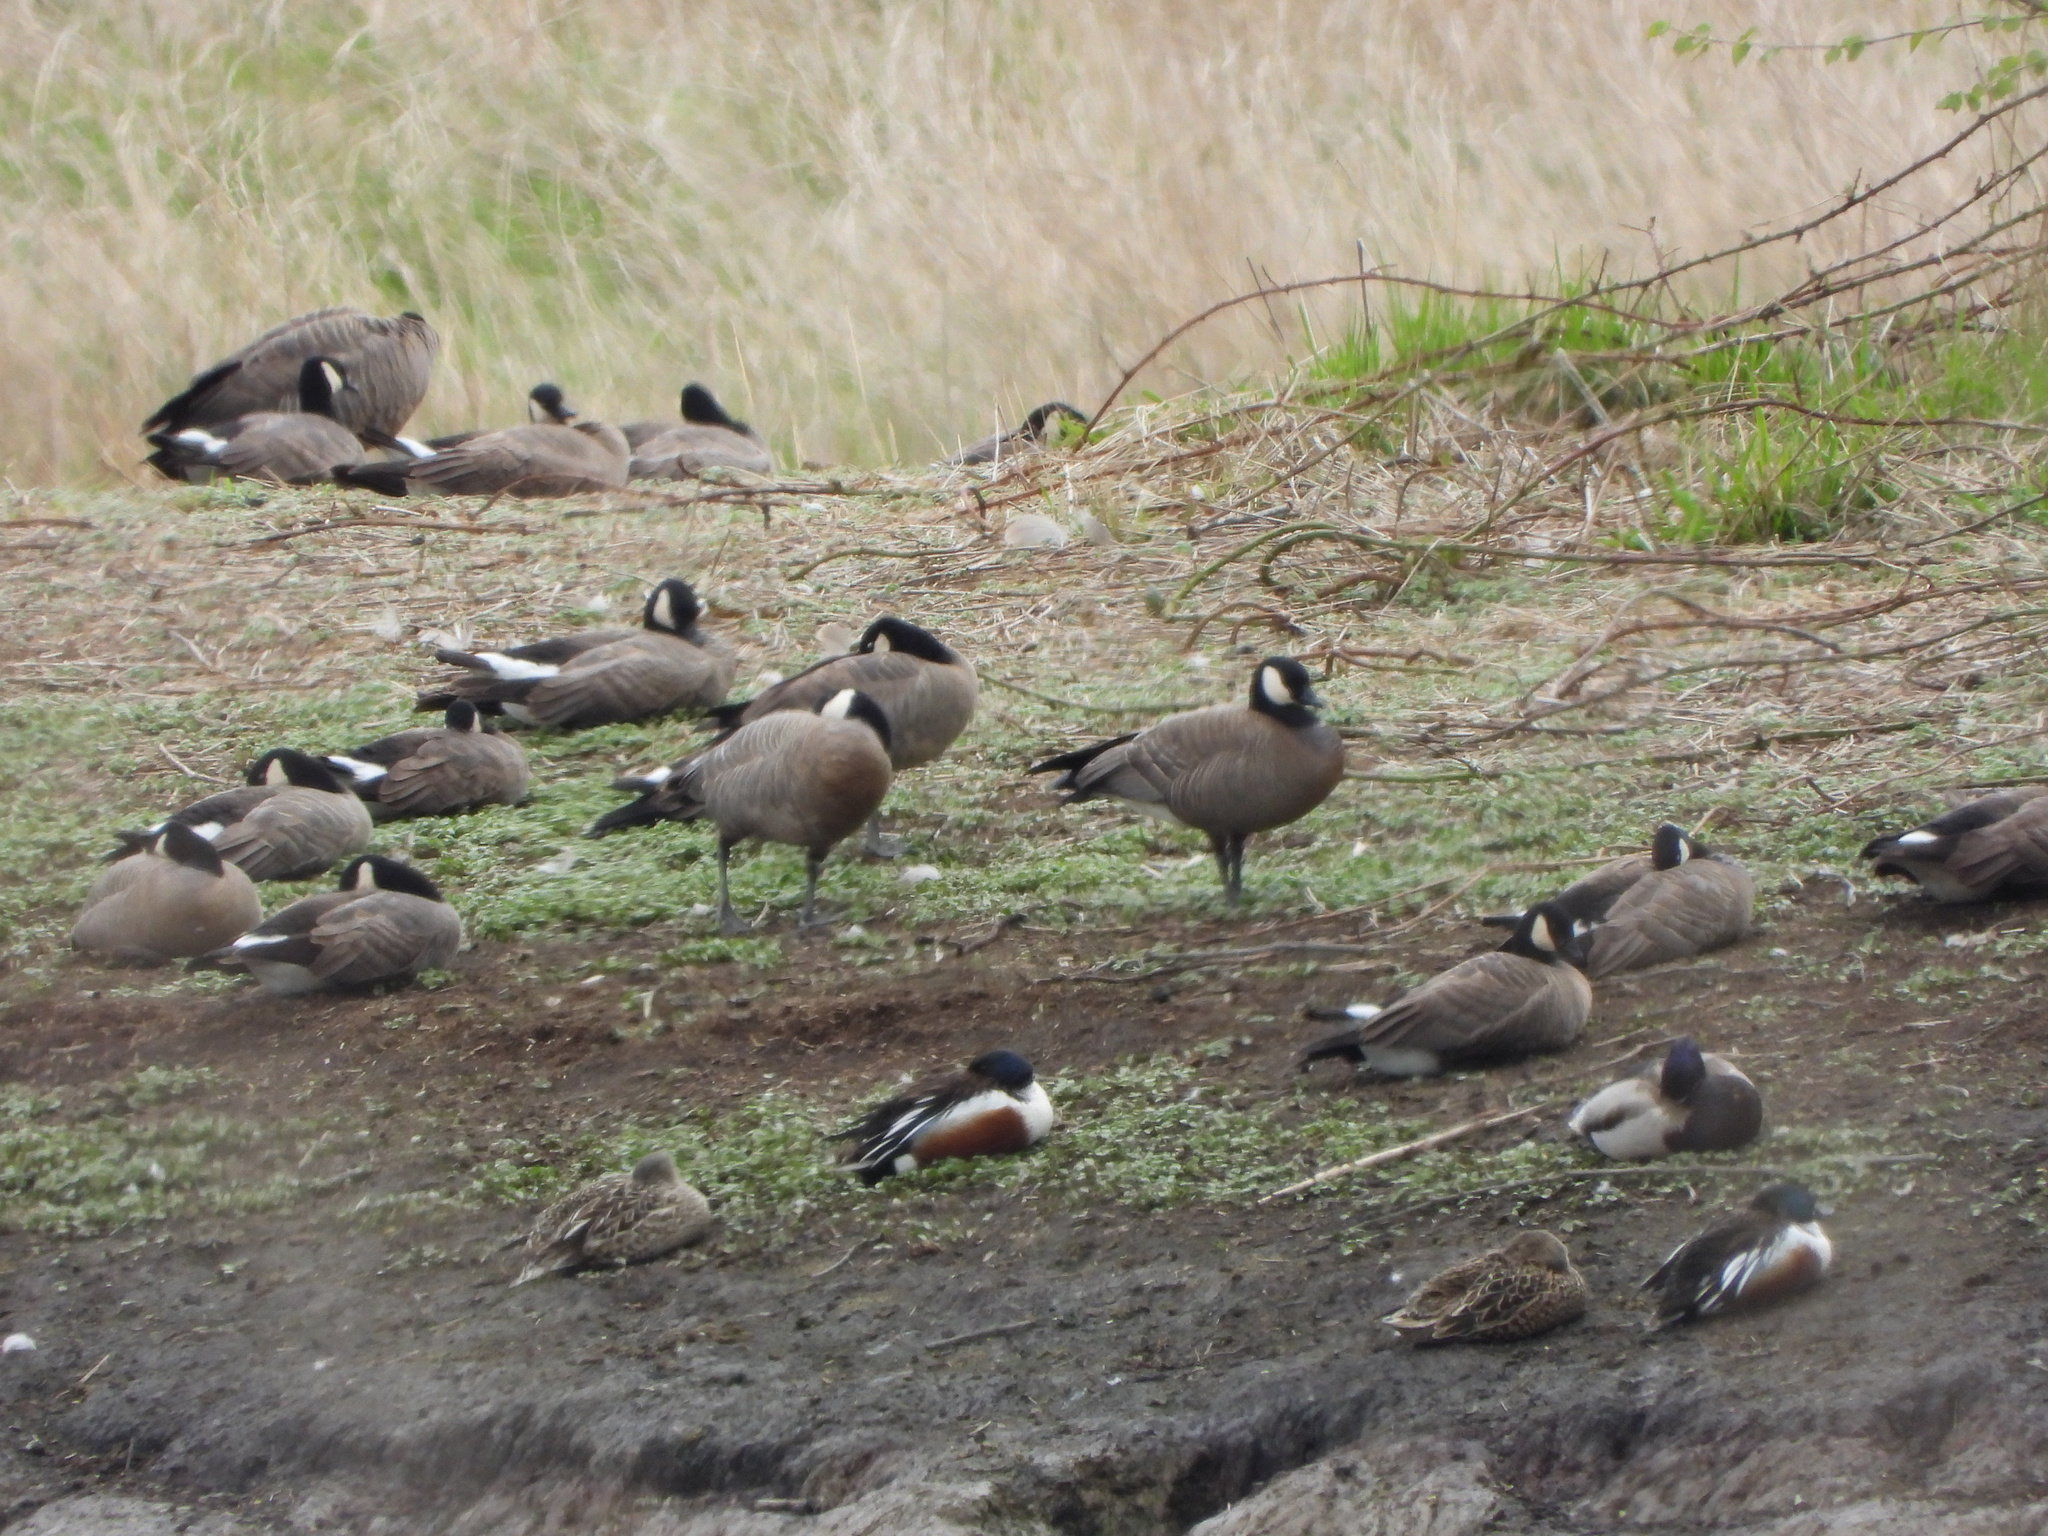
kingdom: Animalia
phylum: Chordata
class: Aves
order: Anseriformes
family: Anatidae
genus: Branta
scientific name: Branta hutchinsii
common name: Cackling goose
